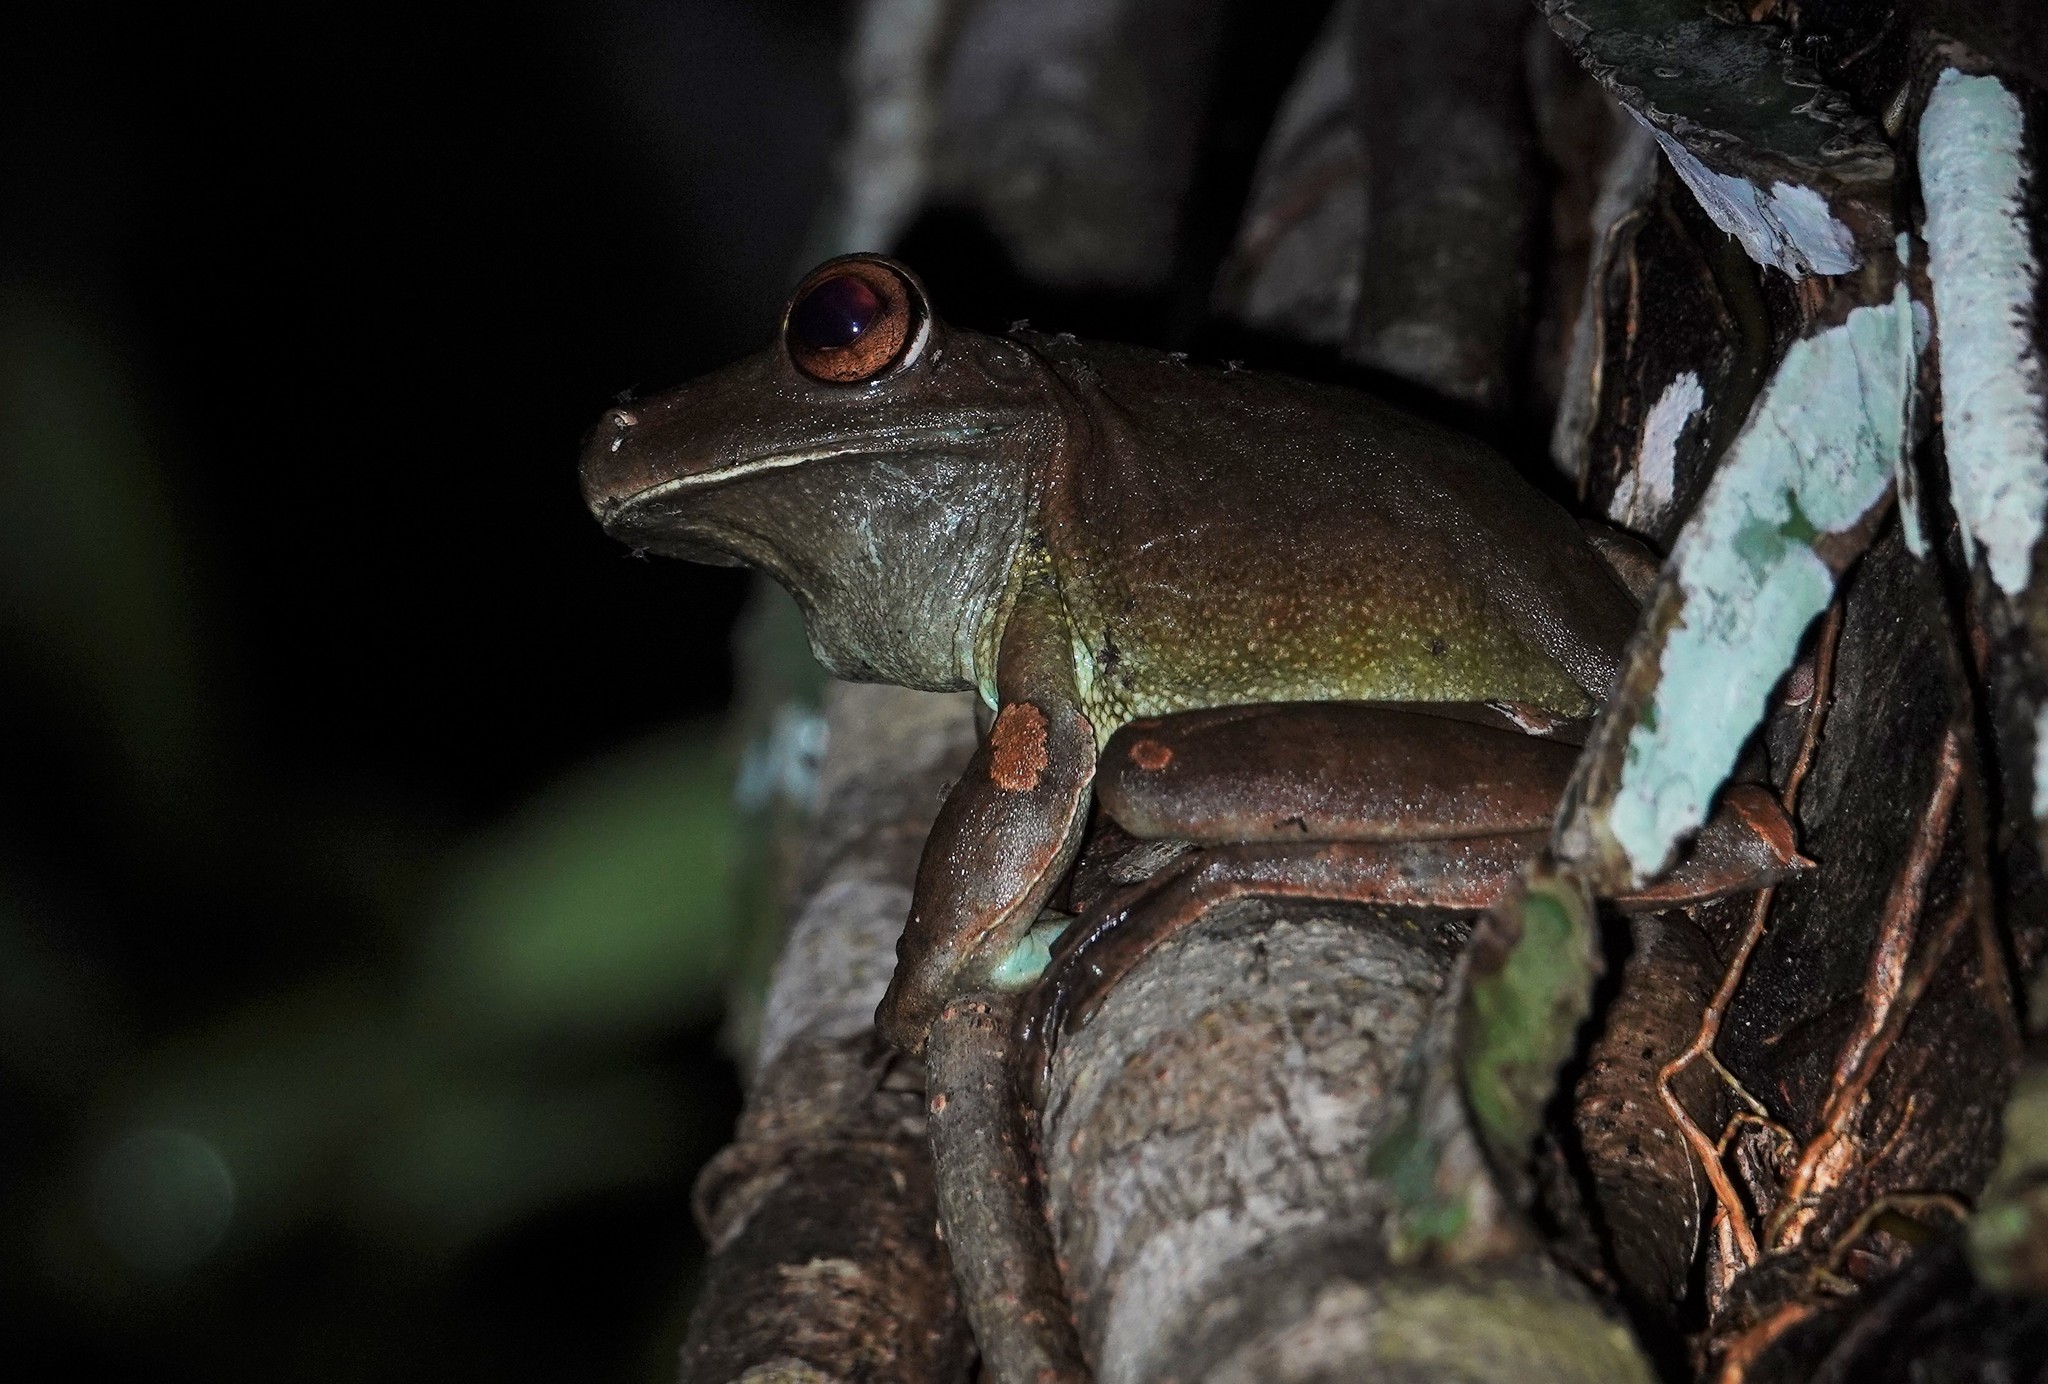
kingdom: Animalia
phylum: Chordata
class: Amphibia
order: Anura
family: Hylidae
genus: Boana
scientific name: Boana boans
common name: Giant gladiator treefrog
